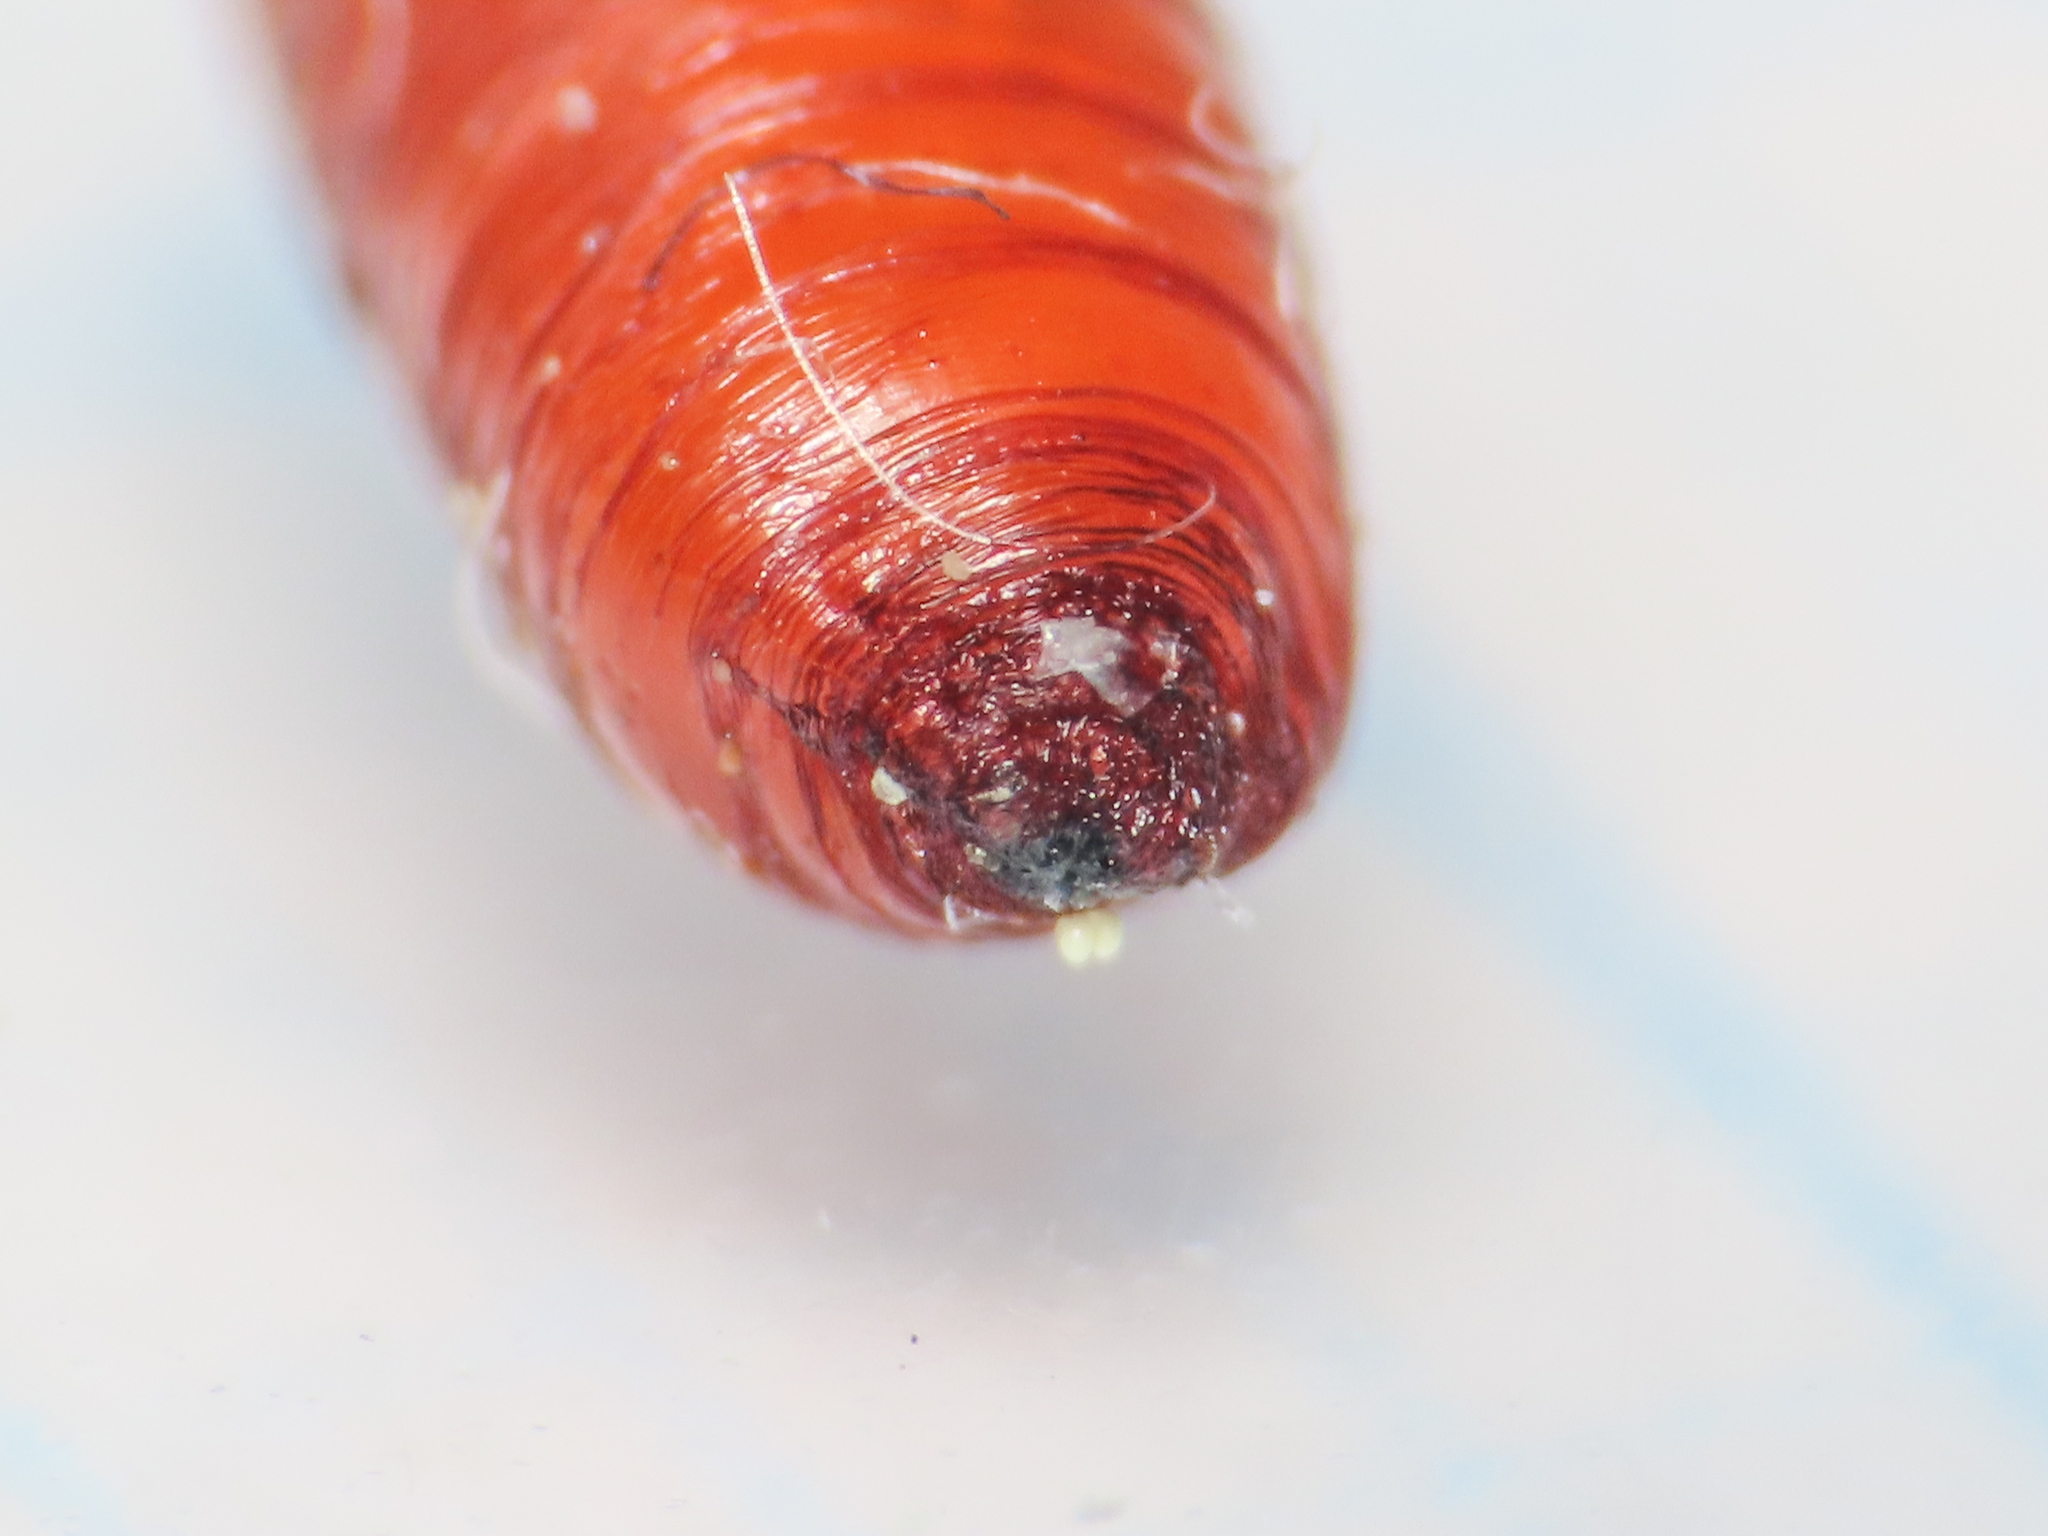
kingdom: Animalia
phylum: Arthropoda
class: Insecta
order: Diptera
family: Lonchaeidae
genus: Silba
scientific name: Silba adipata
